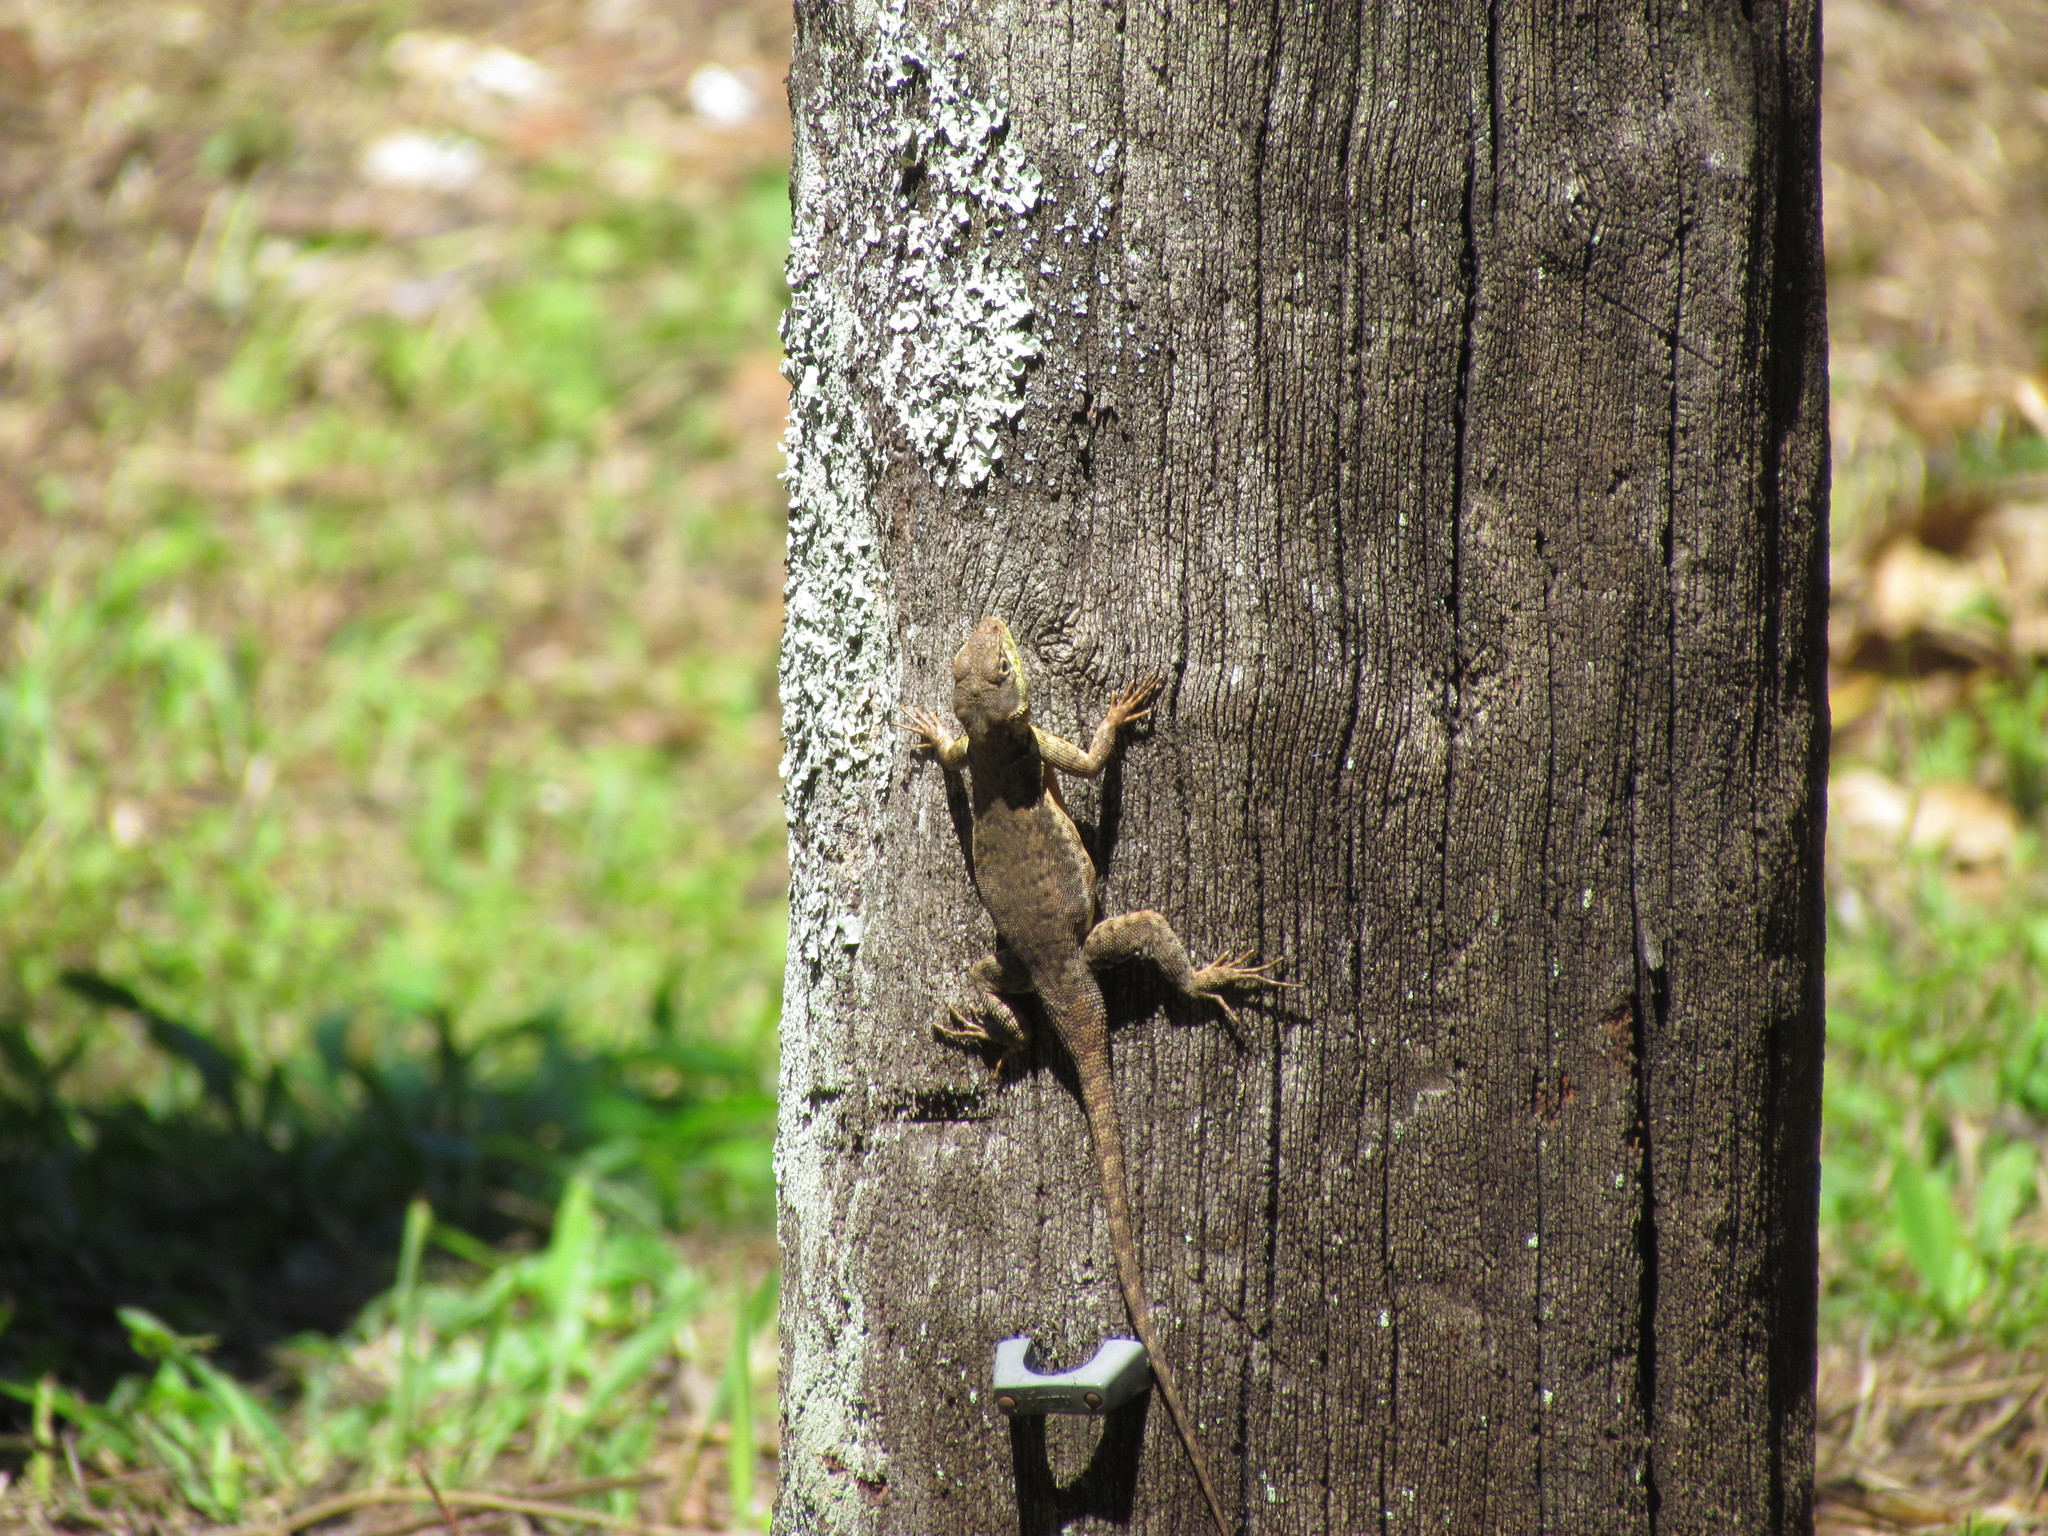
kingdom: Animalia
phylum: Chordata
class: Squamata
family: Tropiduridae
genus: Tropidurus
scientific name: Tropidurus catalanensis
